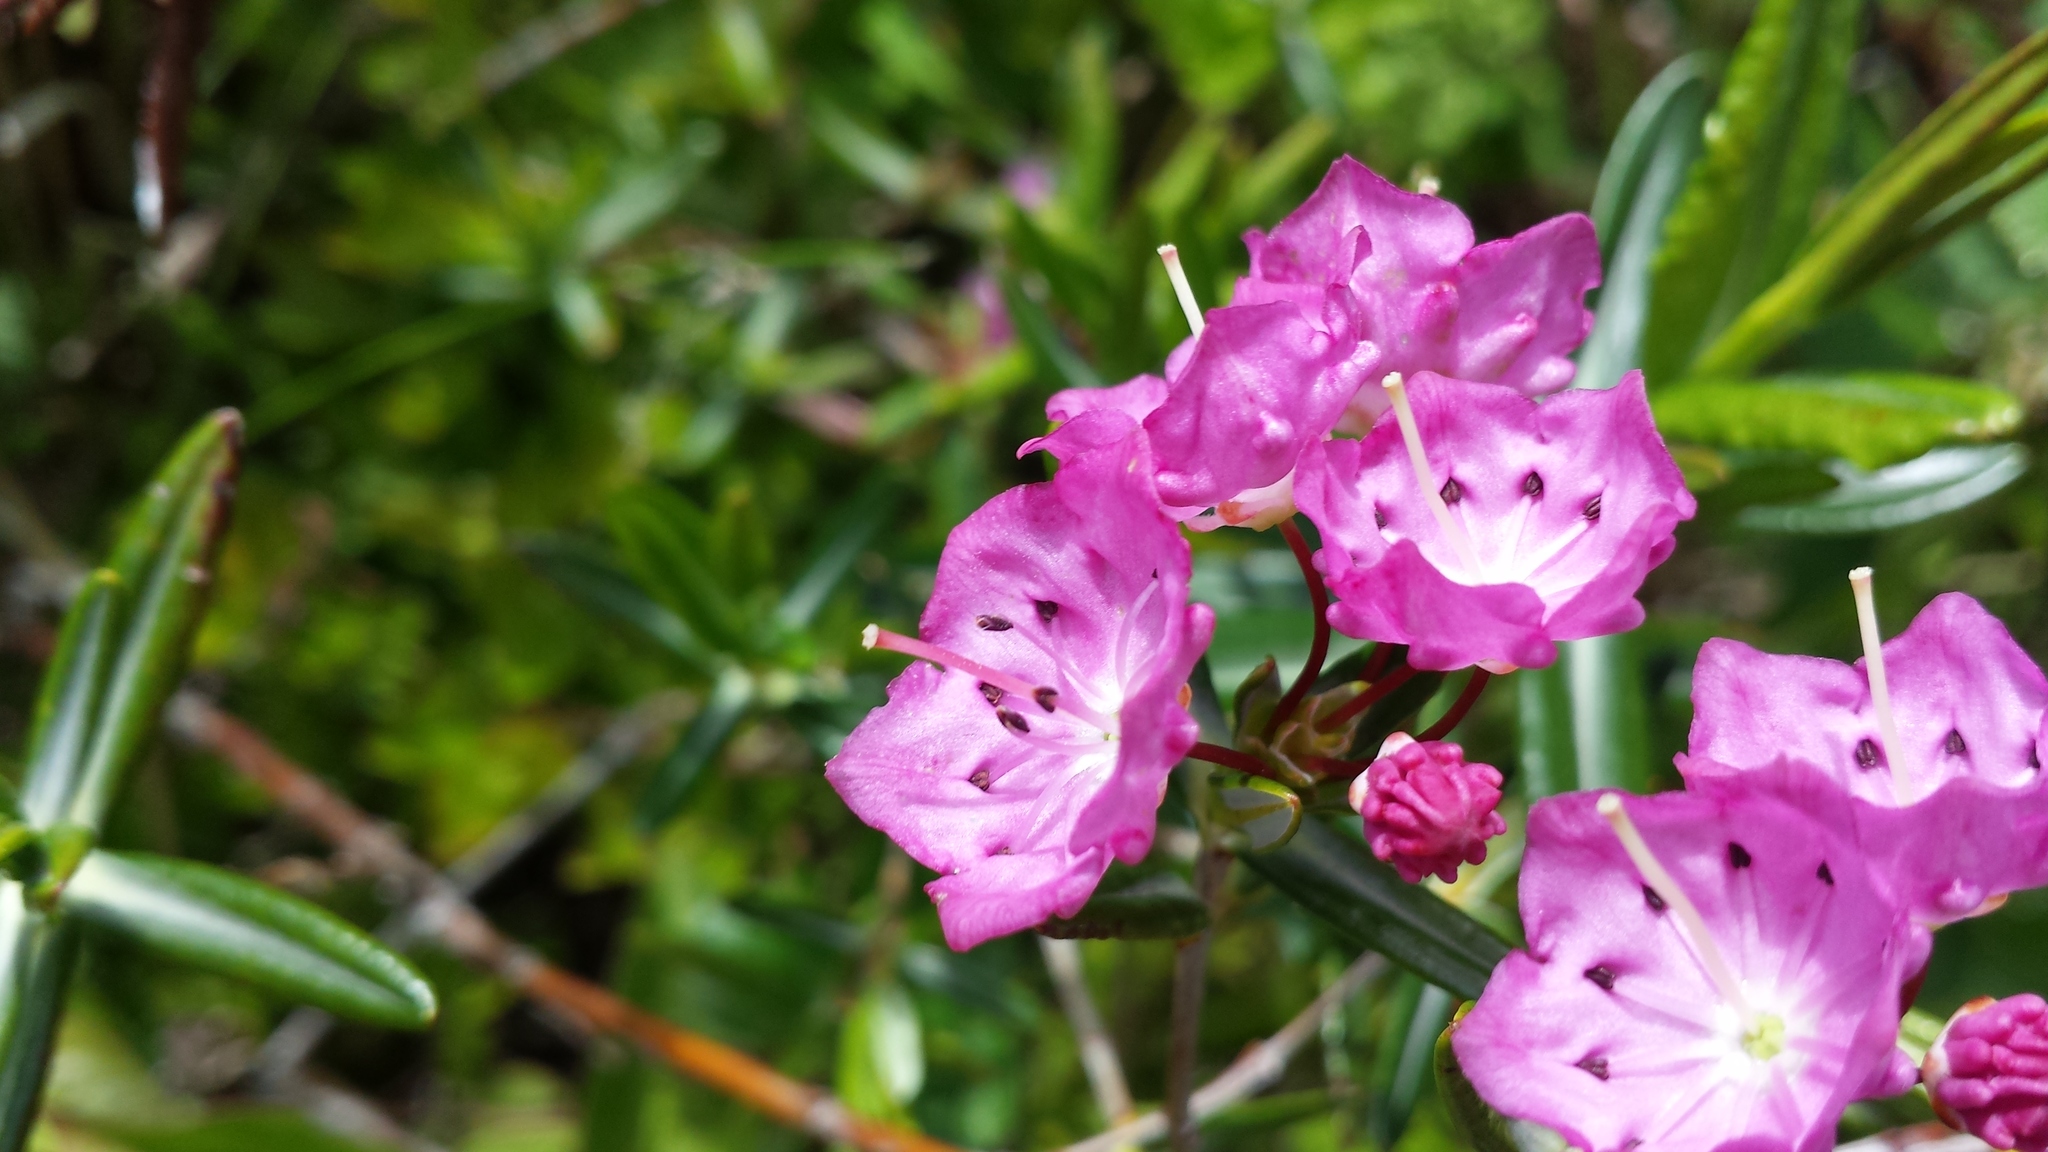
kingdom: Plantae
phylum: Tracheophyta
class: Magnoliopsida
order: Ericales
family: Ericaceae
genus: Kalmia
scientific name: Kalmia polifolia
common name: Bog-laurel
